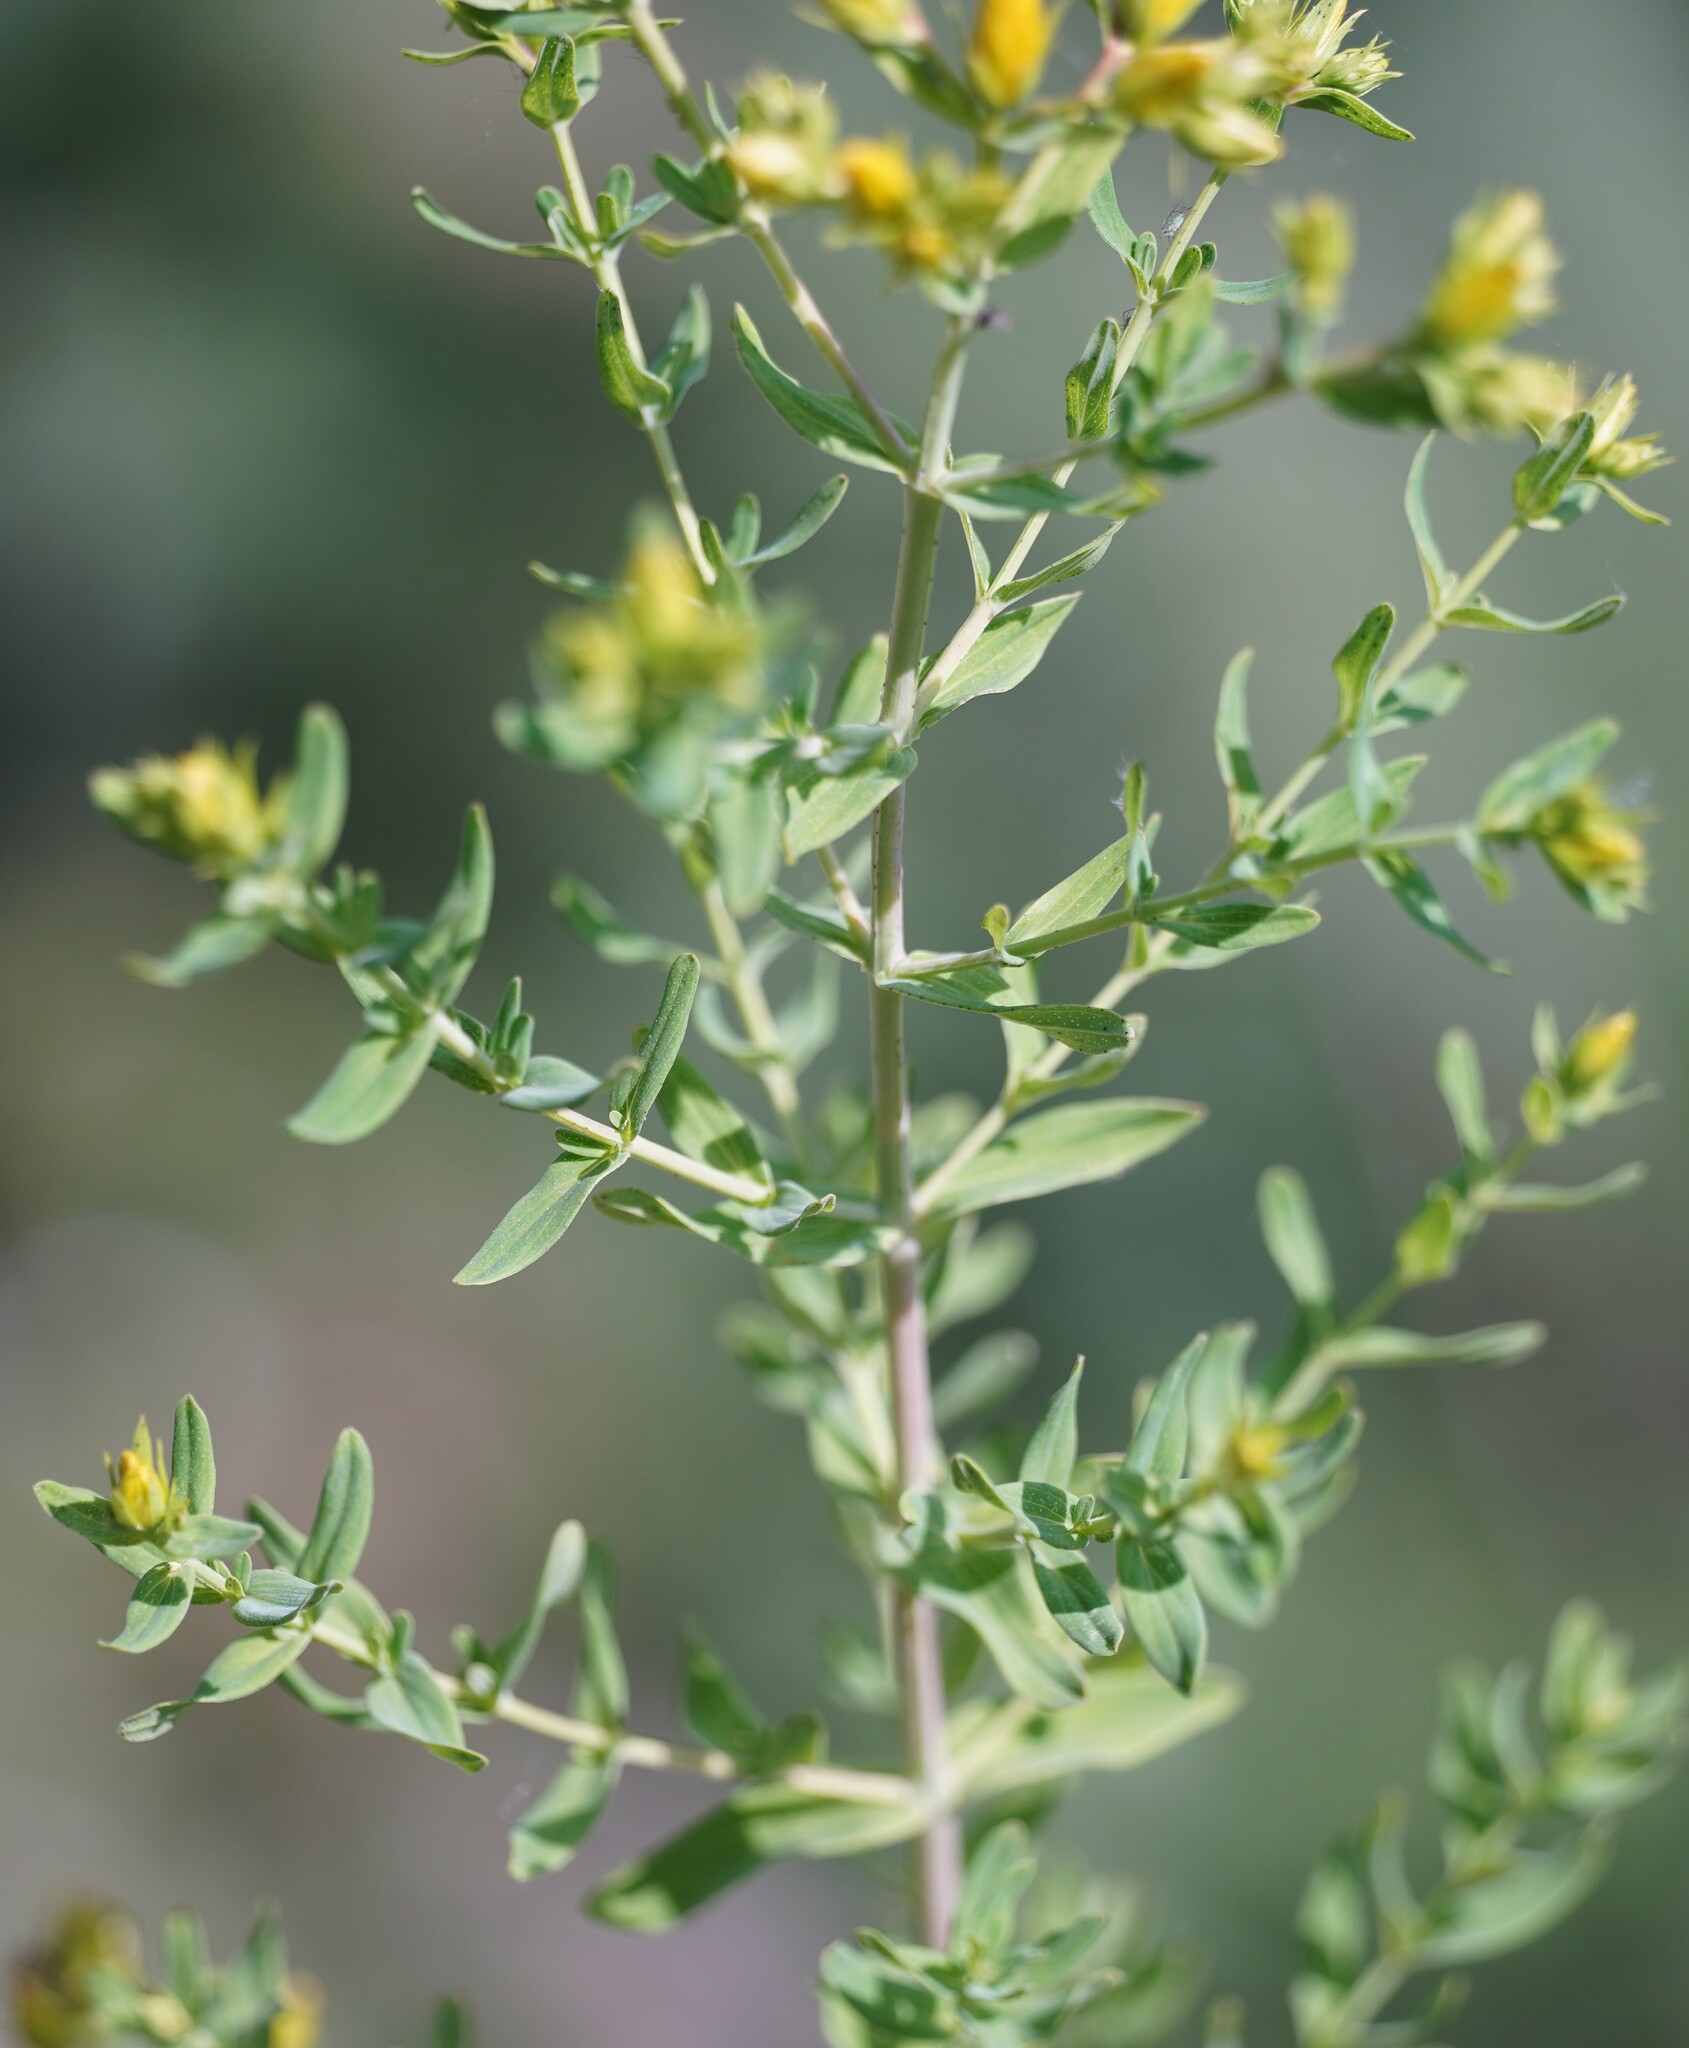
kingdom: Plantae
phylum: Tracheophyta
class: Magnoliopsida
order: Malpighiales
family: Hypericaceae
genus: Hypericum
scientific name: Hypericum perforatum
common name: Common st. johnswort
